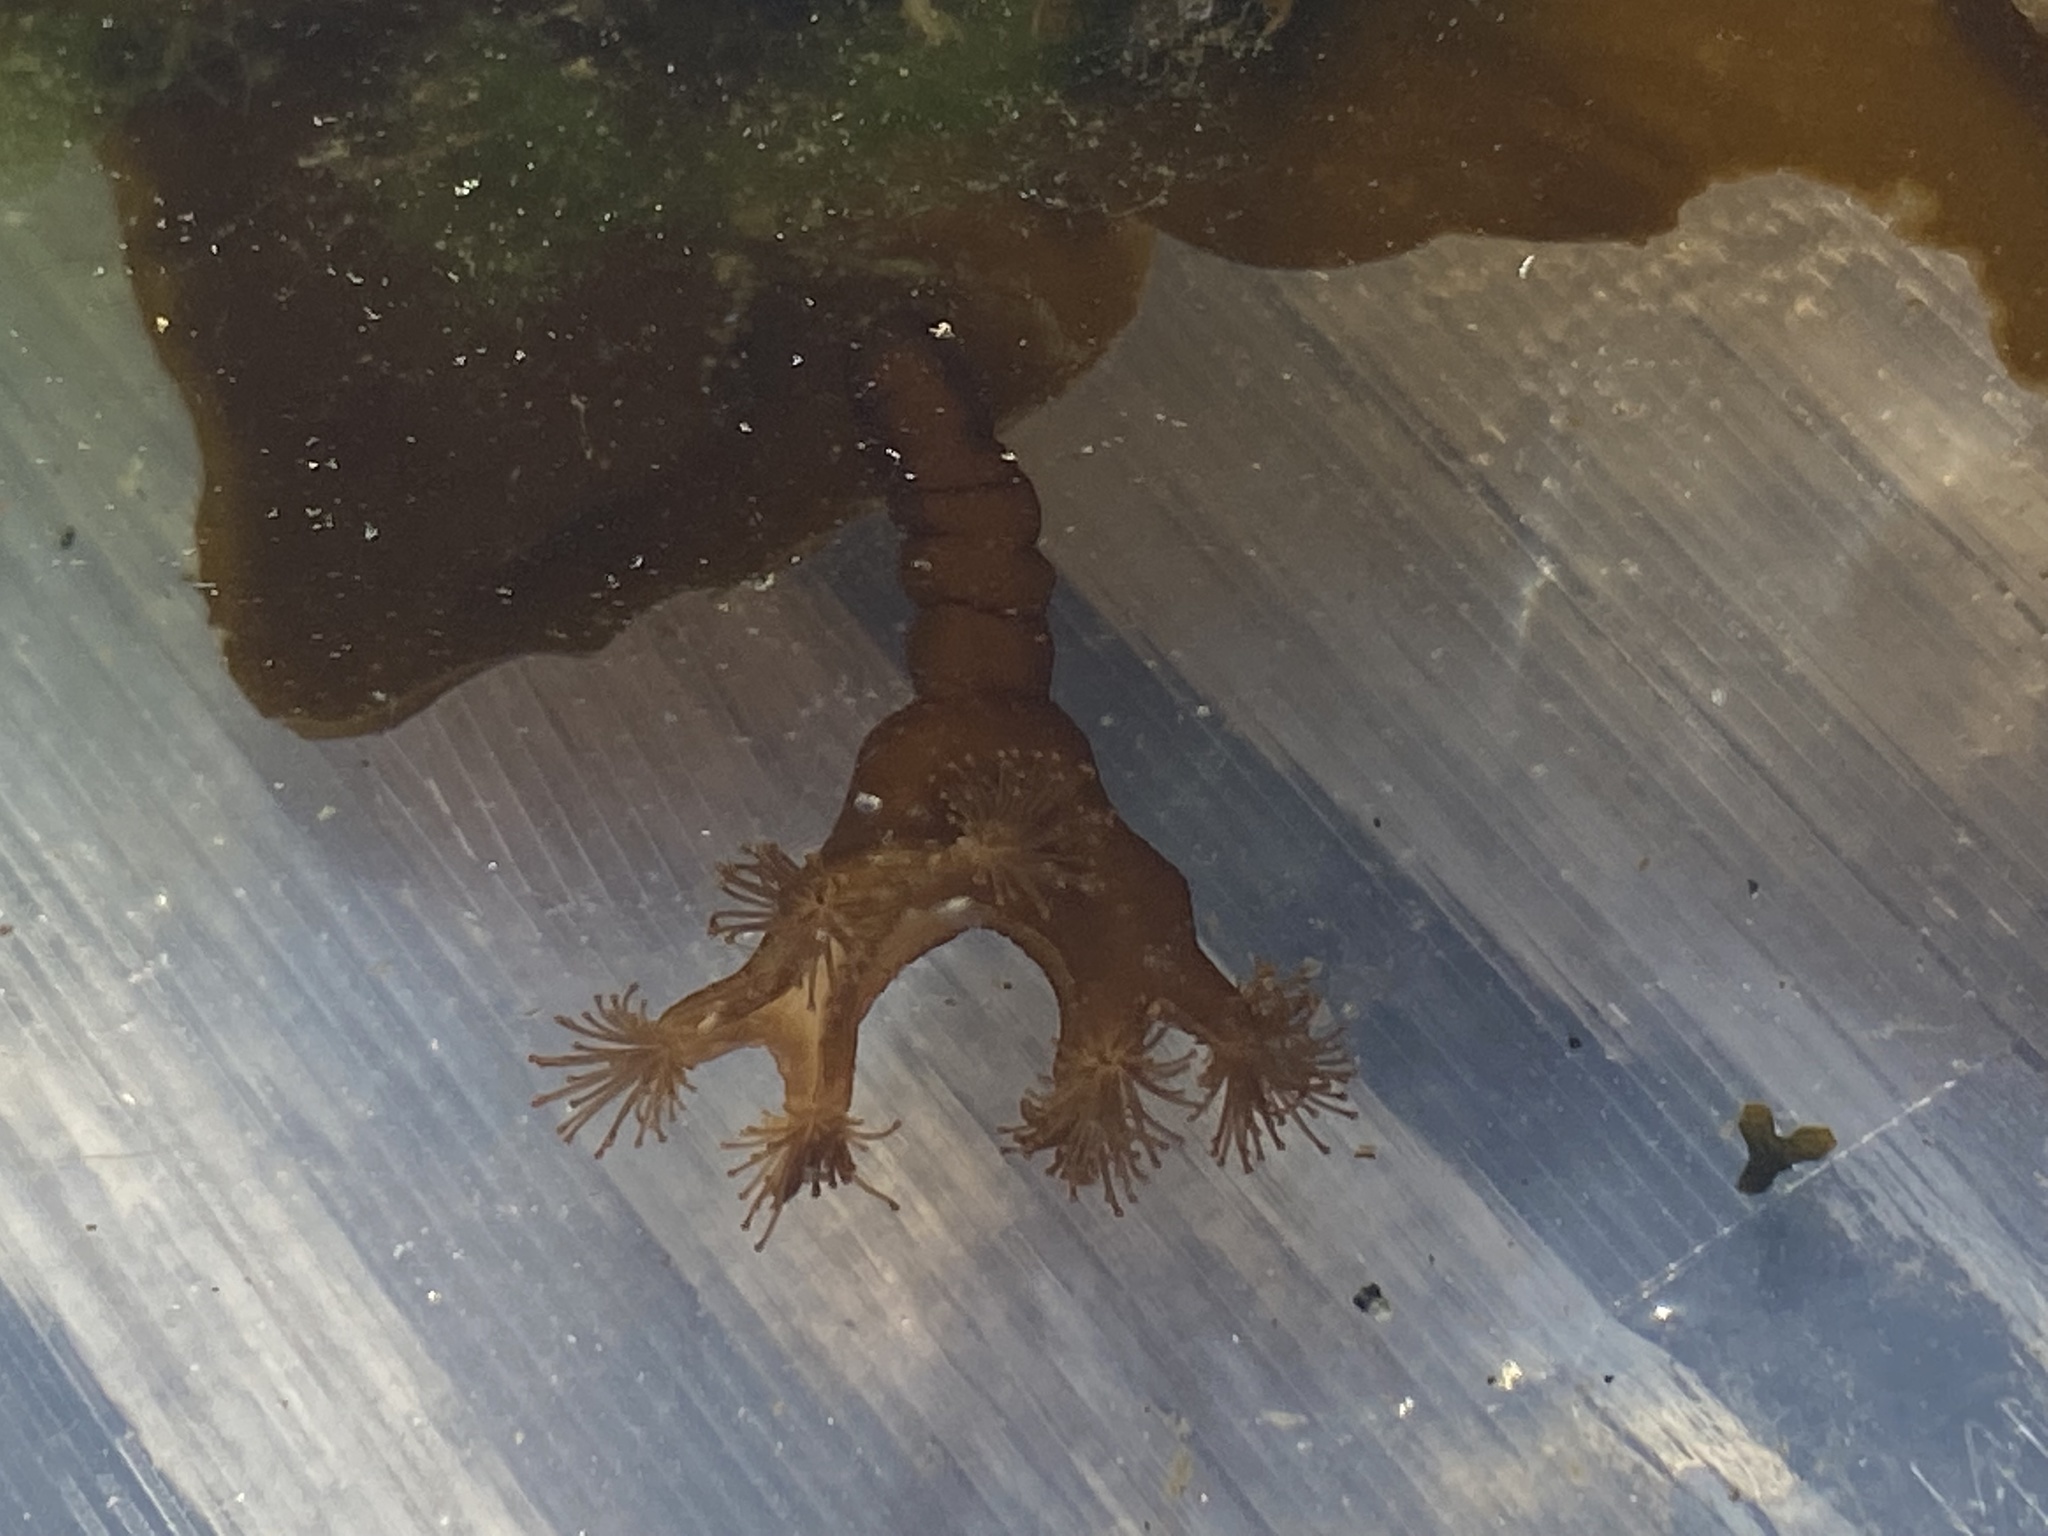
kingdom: Animalia
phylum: Cnidaria
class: Staurozoa
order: Stauromedusae
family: Lucernariidae
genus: Lucernaria
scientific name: Lucernaria quadricornis
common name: Horned stalked jellyfish
